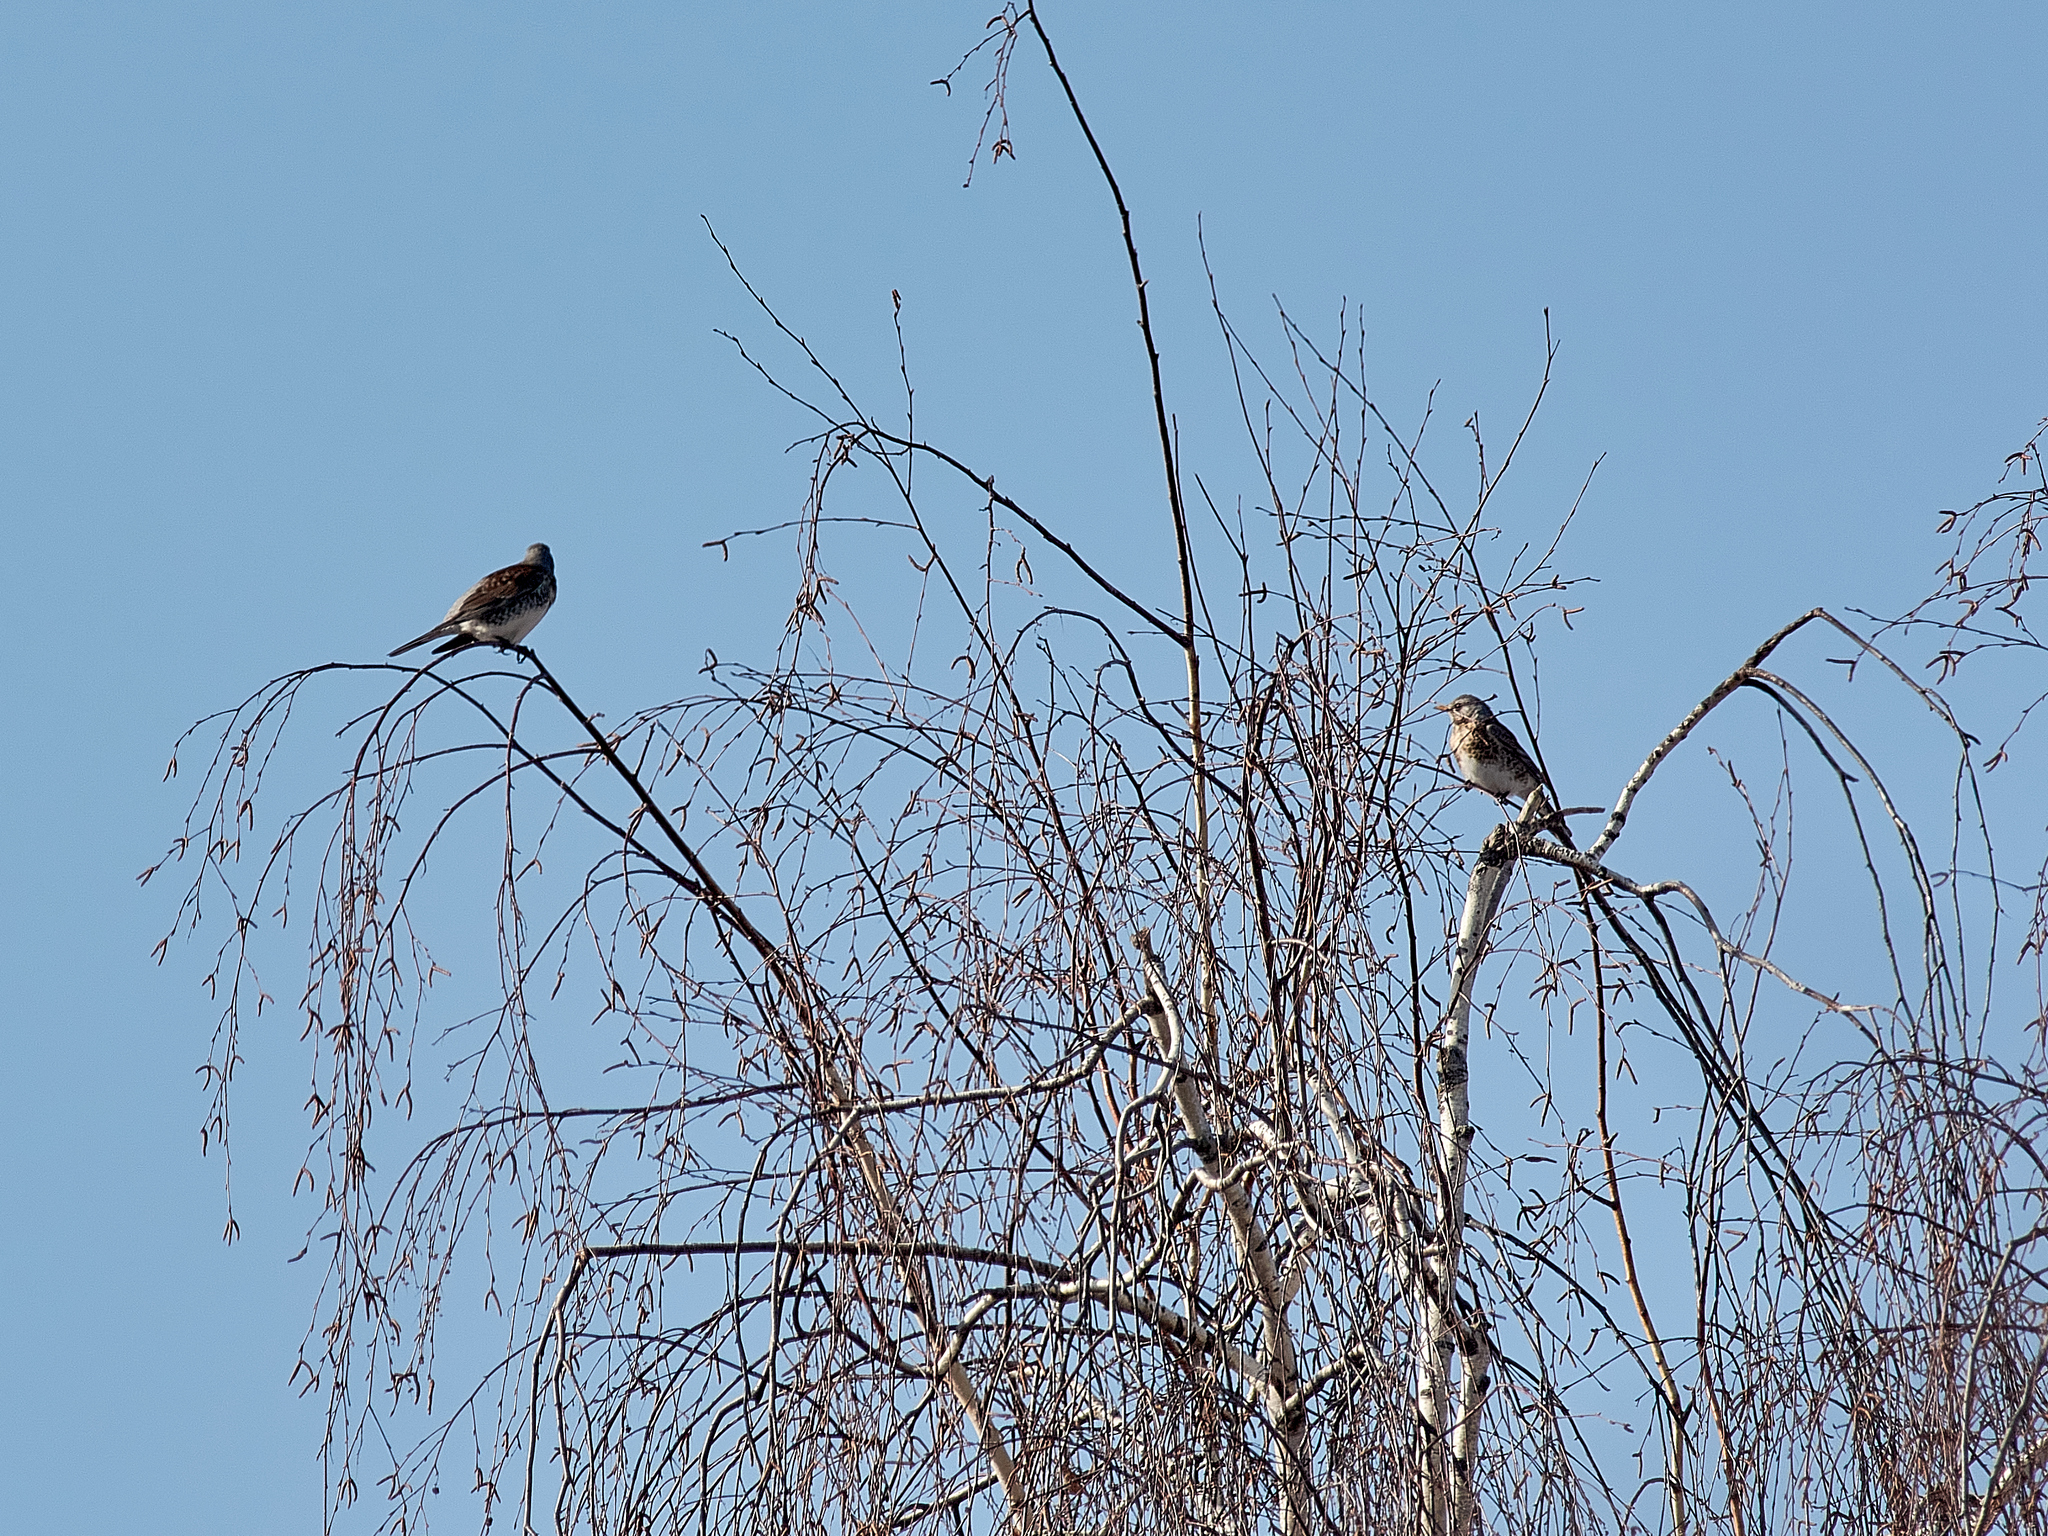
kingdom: Animalia
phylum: Chordata
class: Aves
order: Passeriformes
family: Turdidae
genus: Turdus
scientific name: Turdus pilaris
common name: Fieldfare
